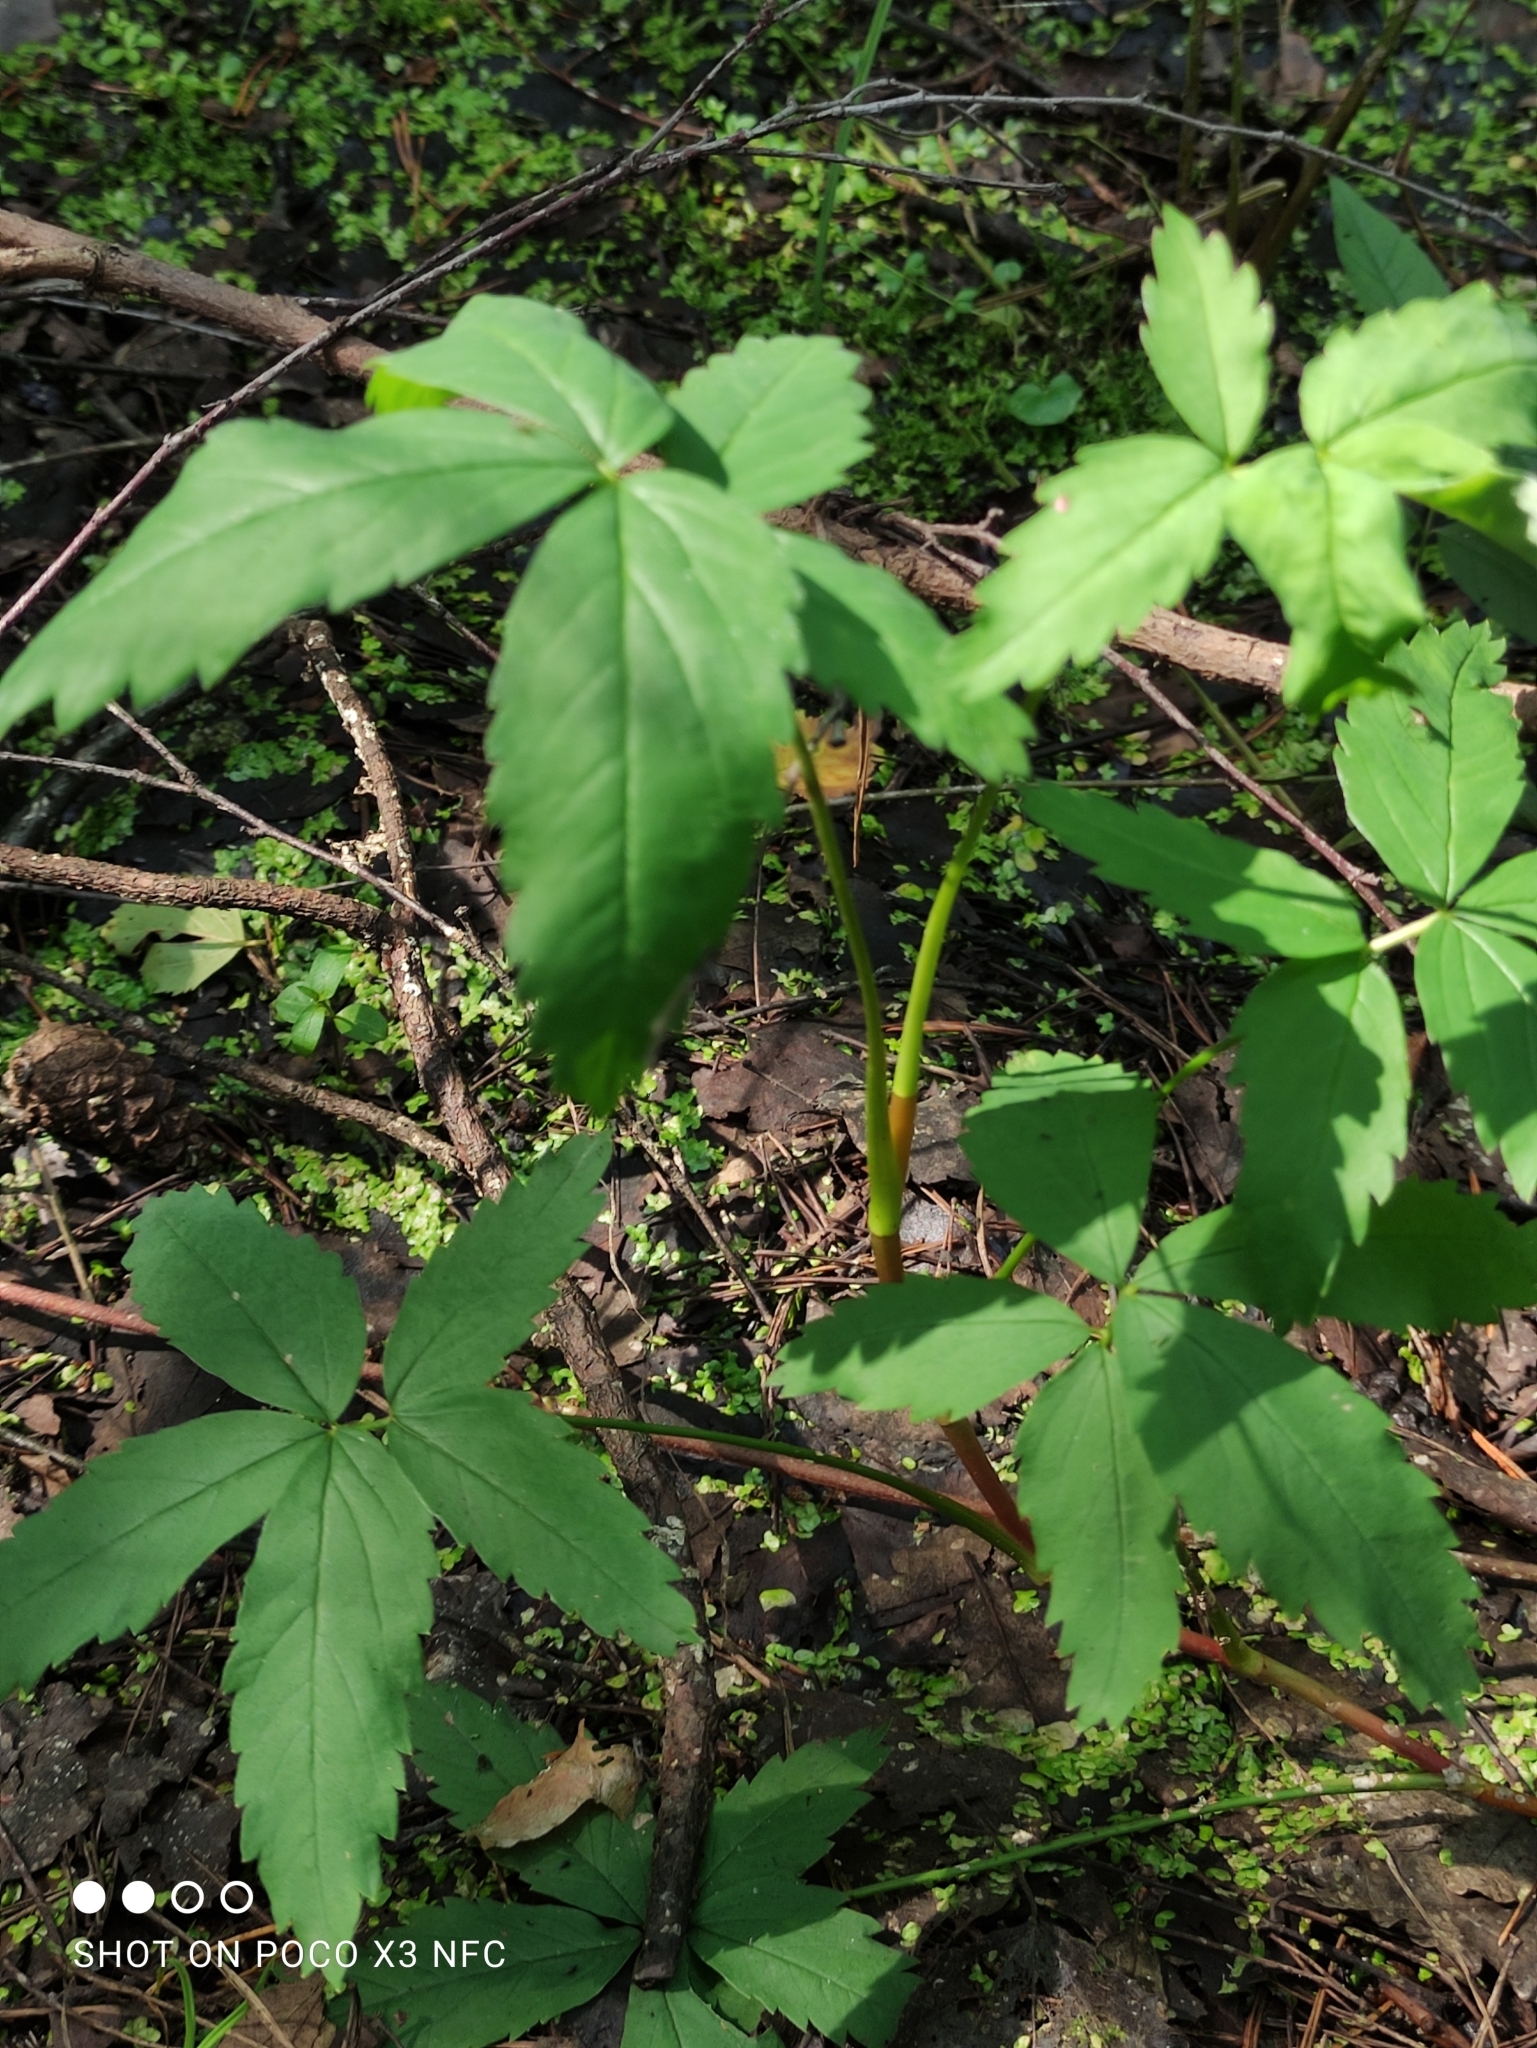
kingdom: Plantae
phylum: Tracheophyta
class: Magnoliopsida
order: Rosales
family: Rosaceae
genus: Comarum
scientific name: Comarum palustre
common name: Marsh cinquefoil
